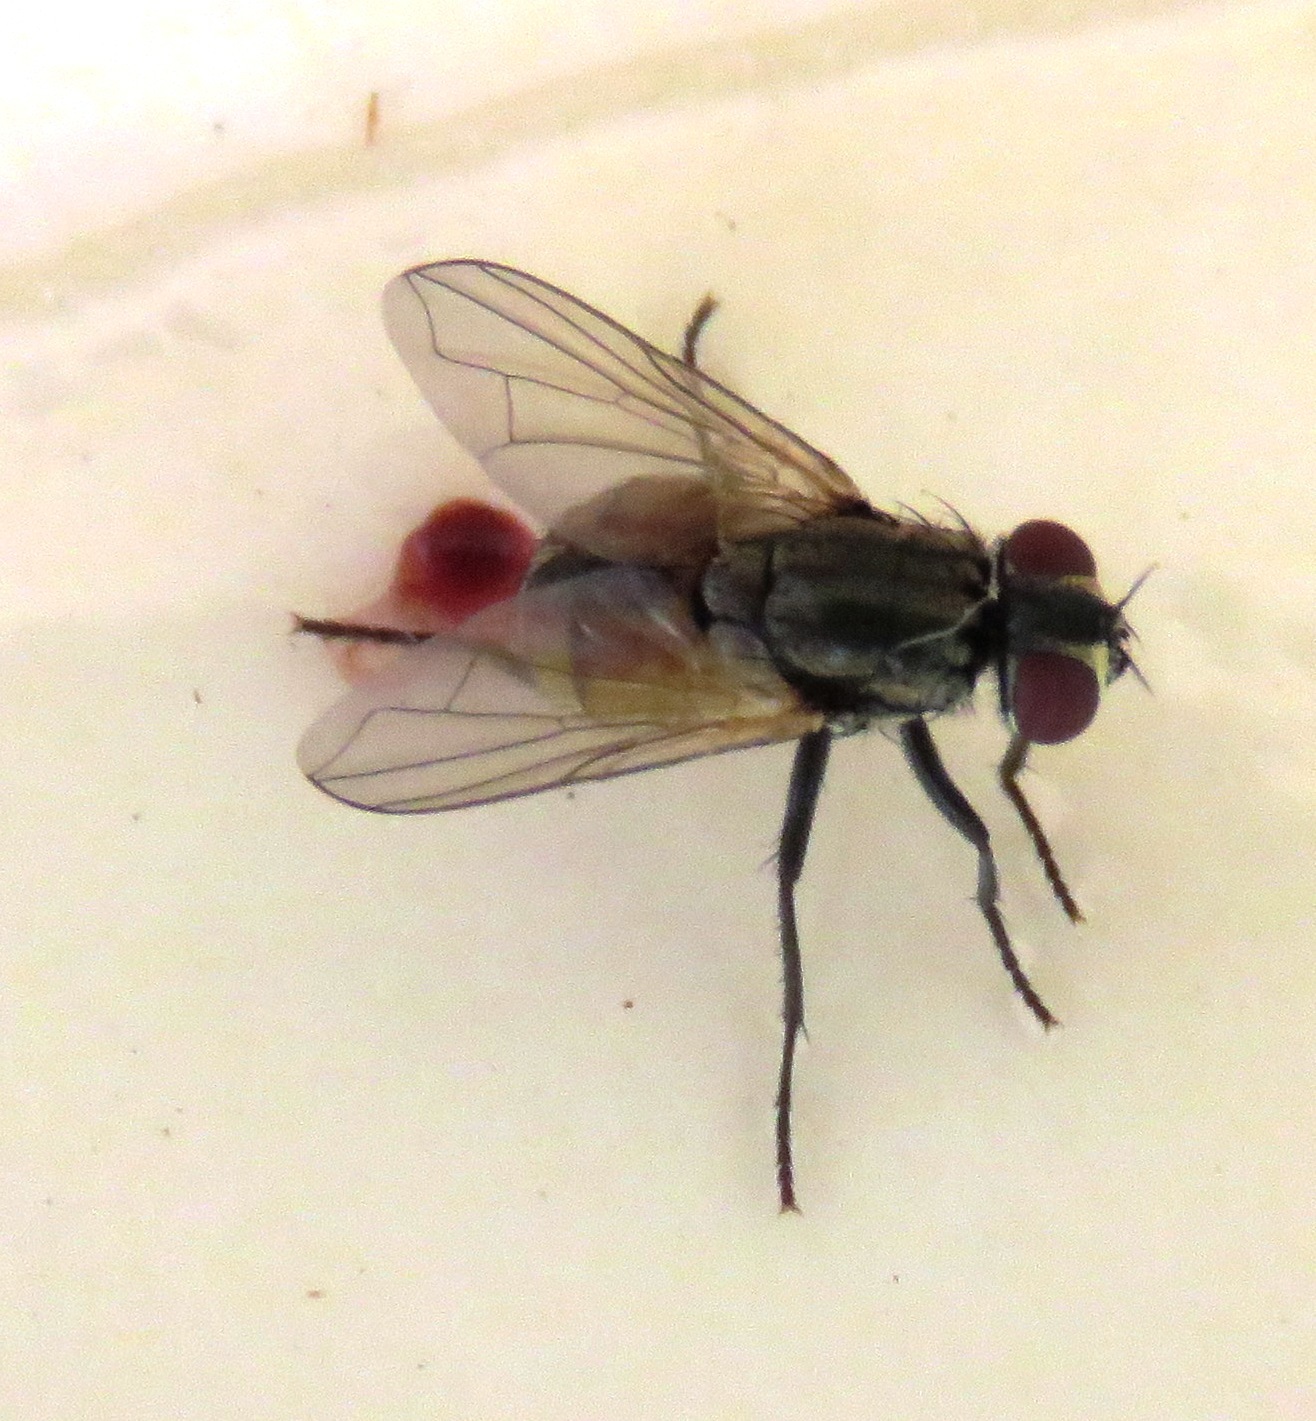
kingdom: Animalia
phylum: Arthropoda
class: Insecta
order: Diptera
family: Muscidae
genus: Musca
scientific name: Musca domestica
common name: House fly
